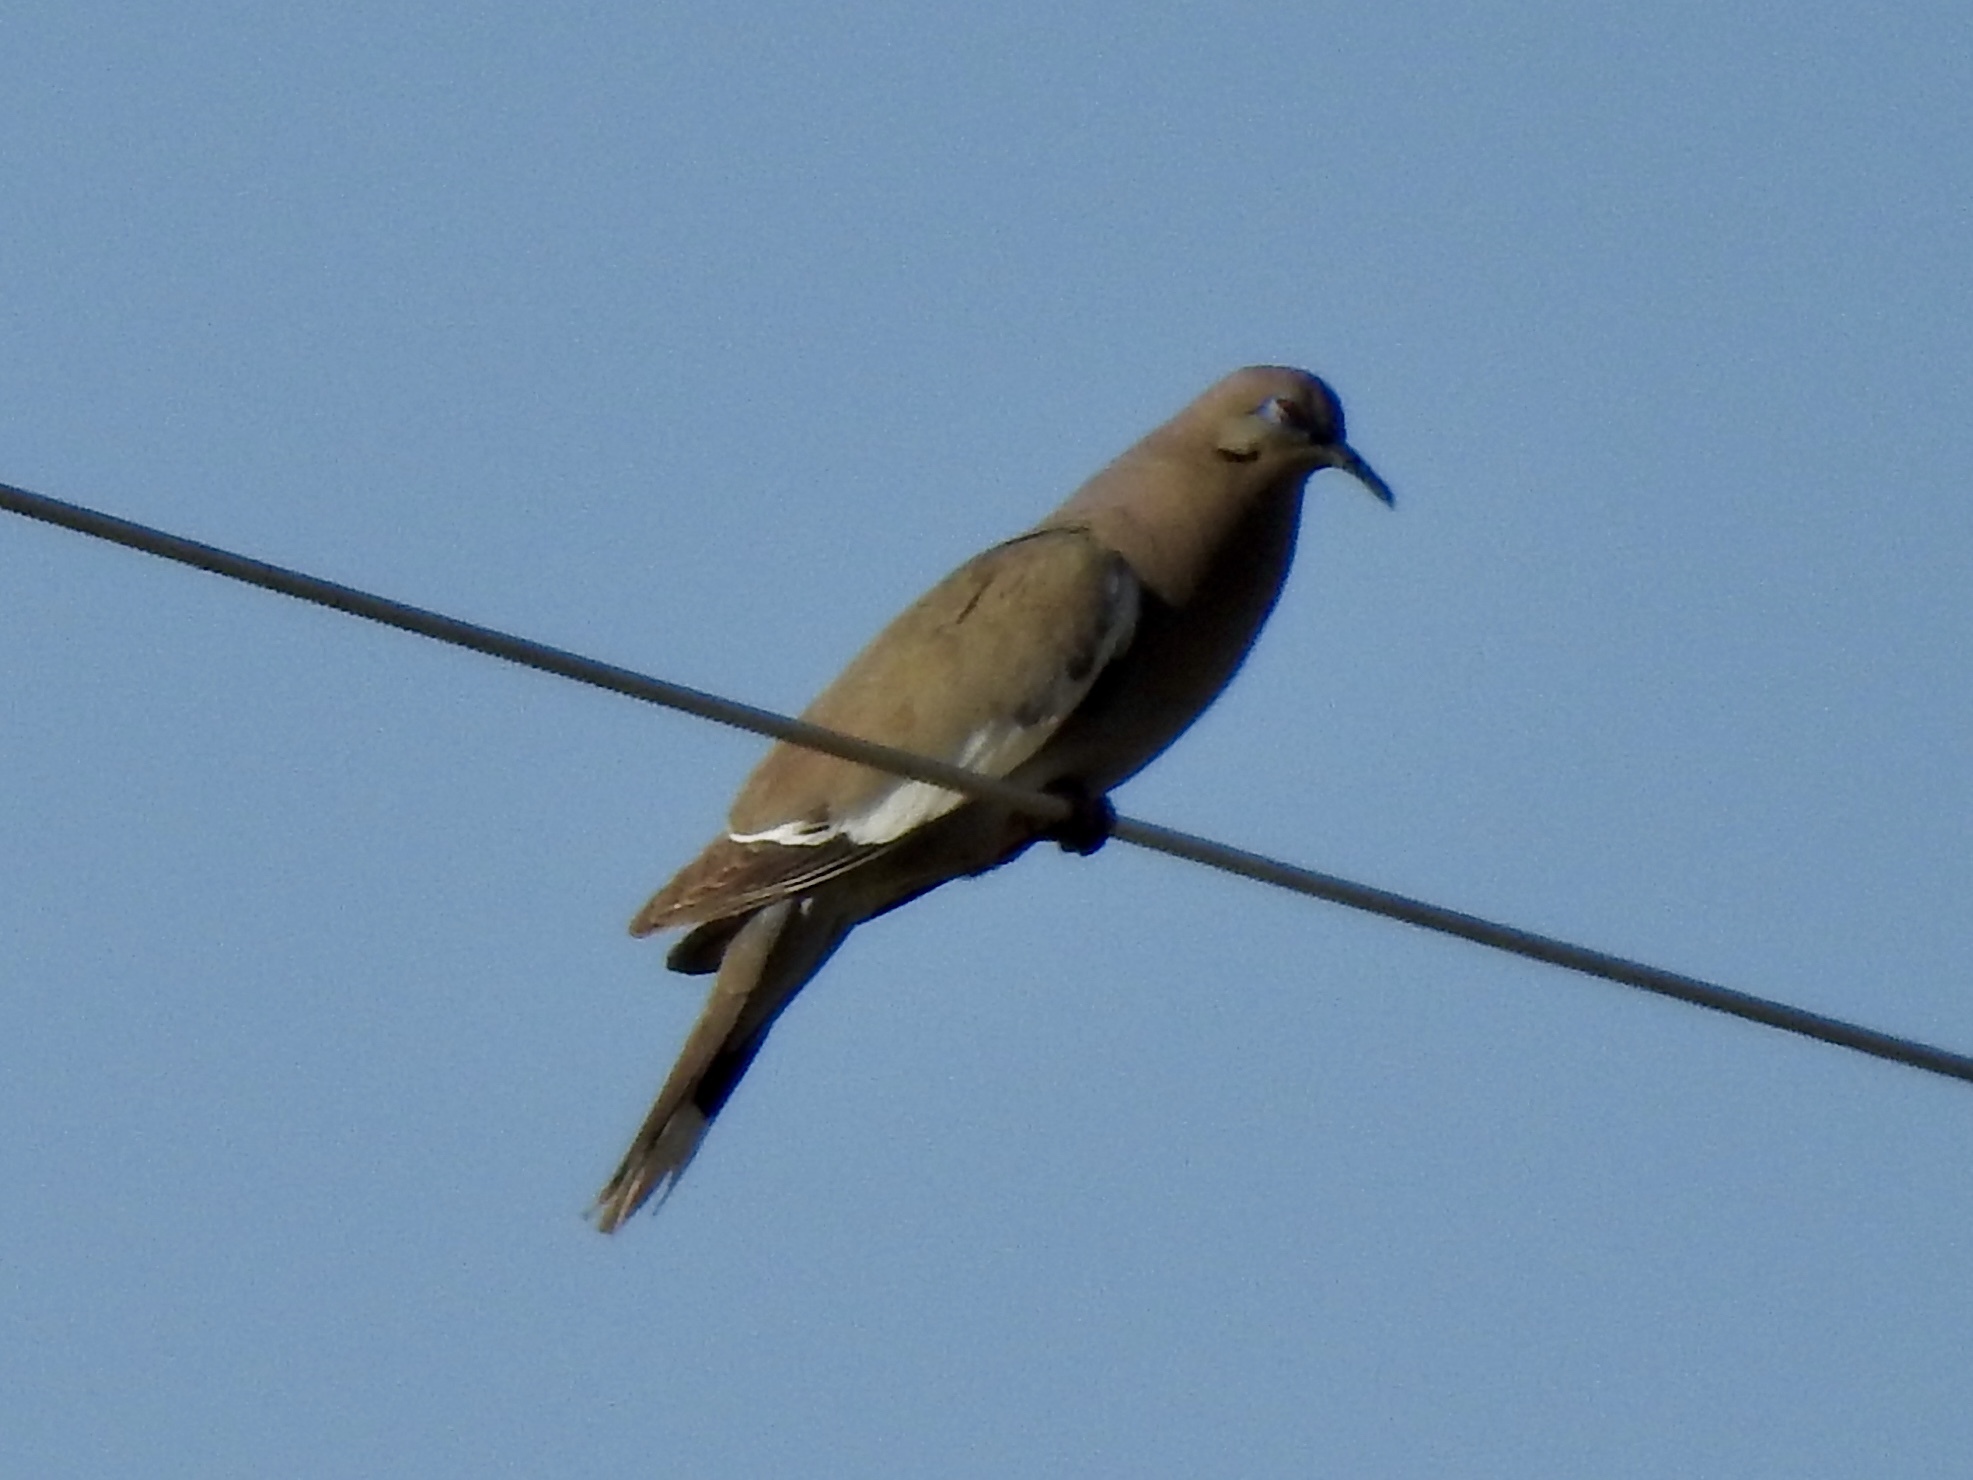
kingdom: Animalia
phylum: Chordata
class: Aves
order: Columbiformes
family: Columbidae
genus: Zenaida
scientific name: Zenaida asiatica
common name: White-winged dove
